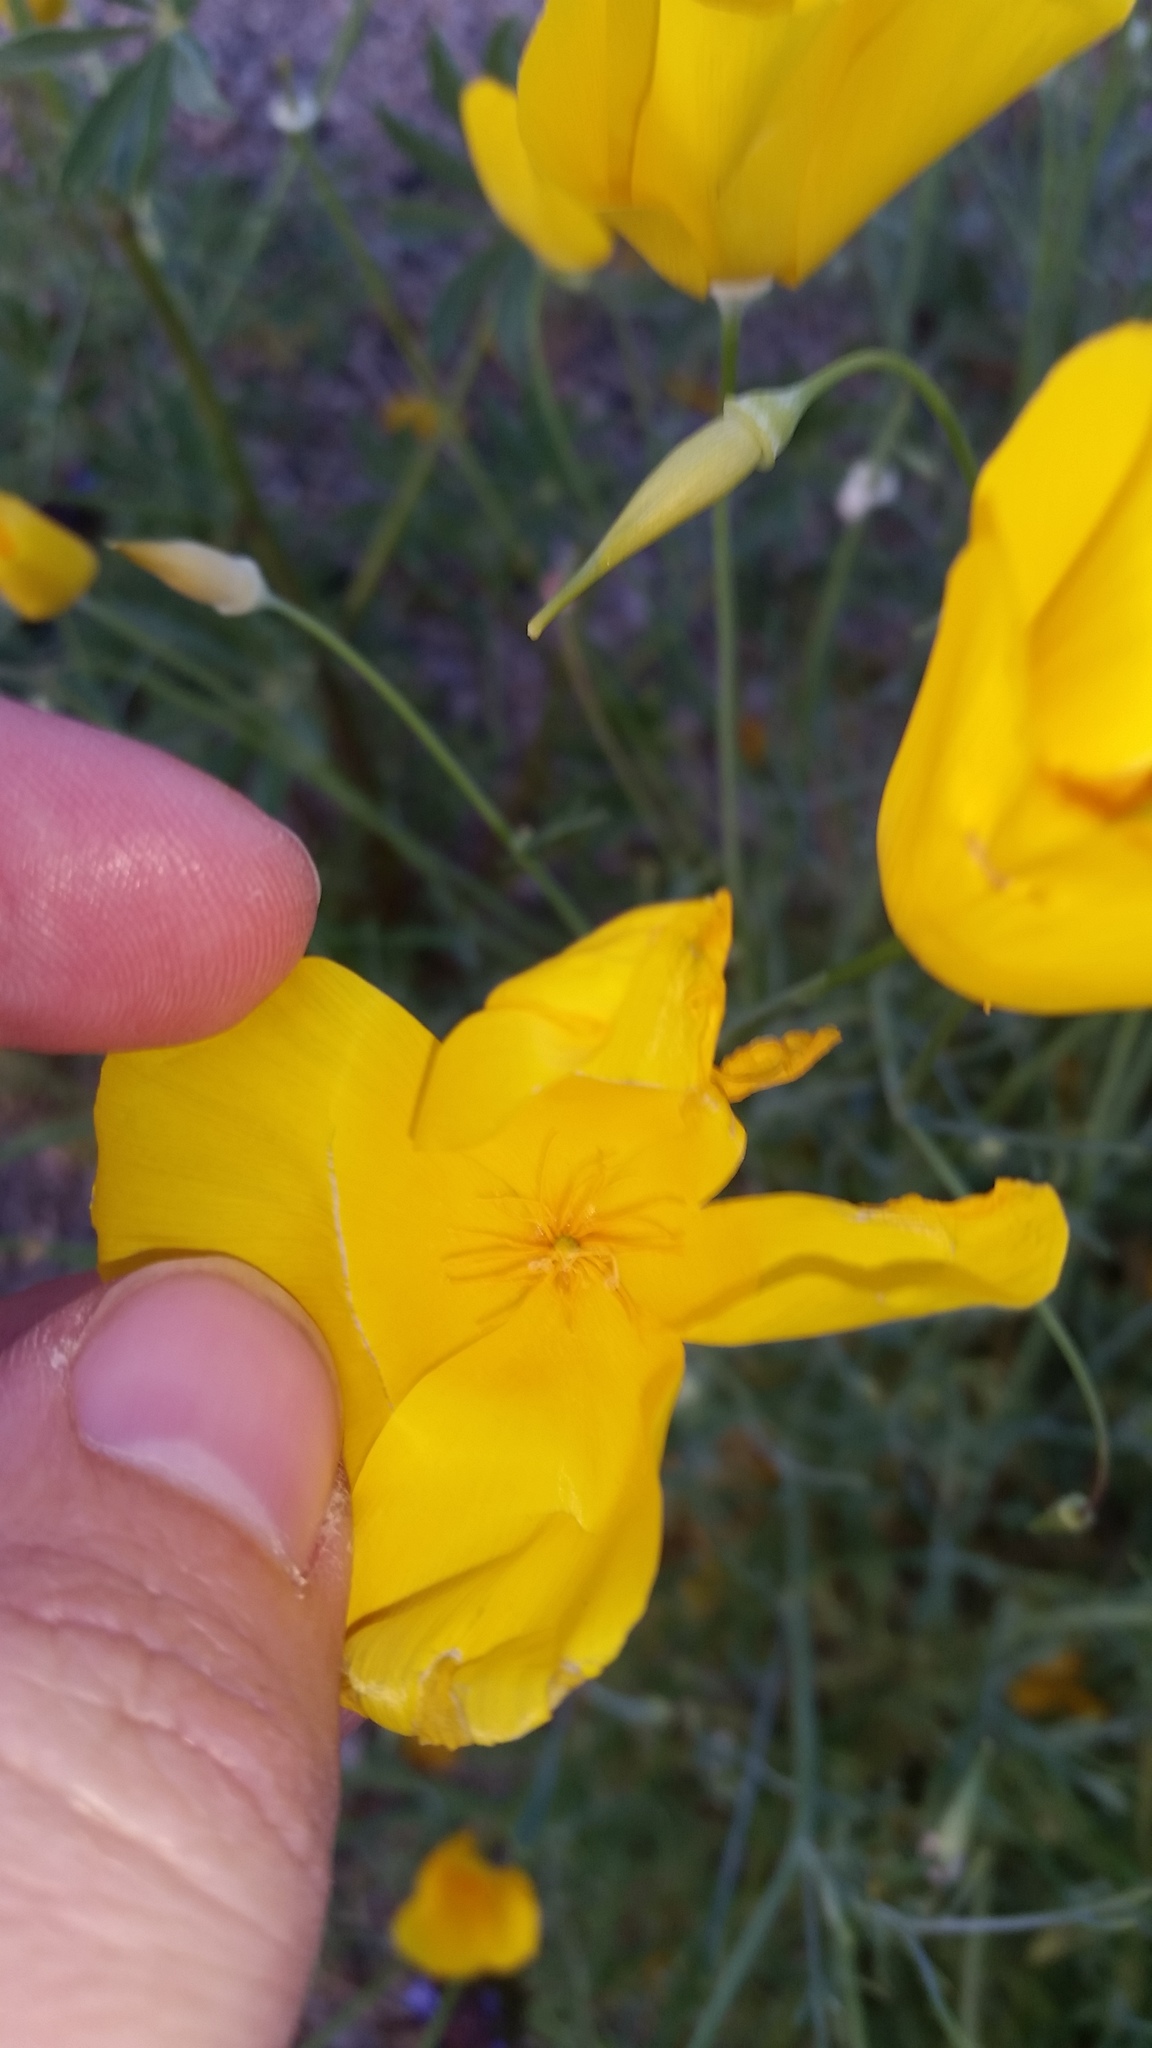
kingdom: Plantae
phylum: Tracheophyta
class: Magnoliopsida
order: Ranunculales
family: Papaveraceae
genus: Eschscholzia
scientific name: Eschscholzia papastillii
